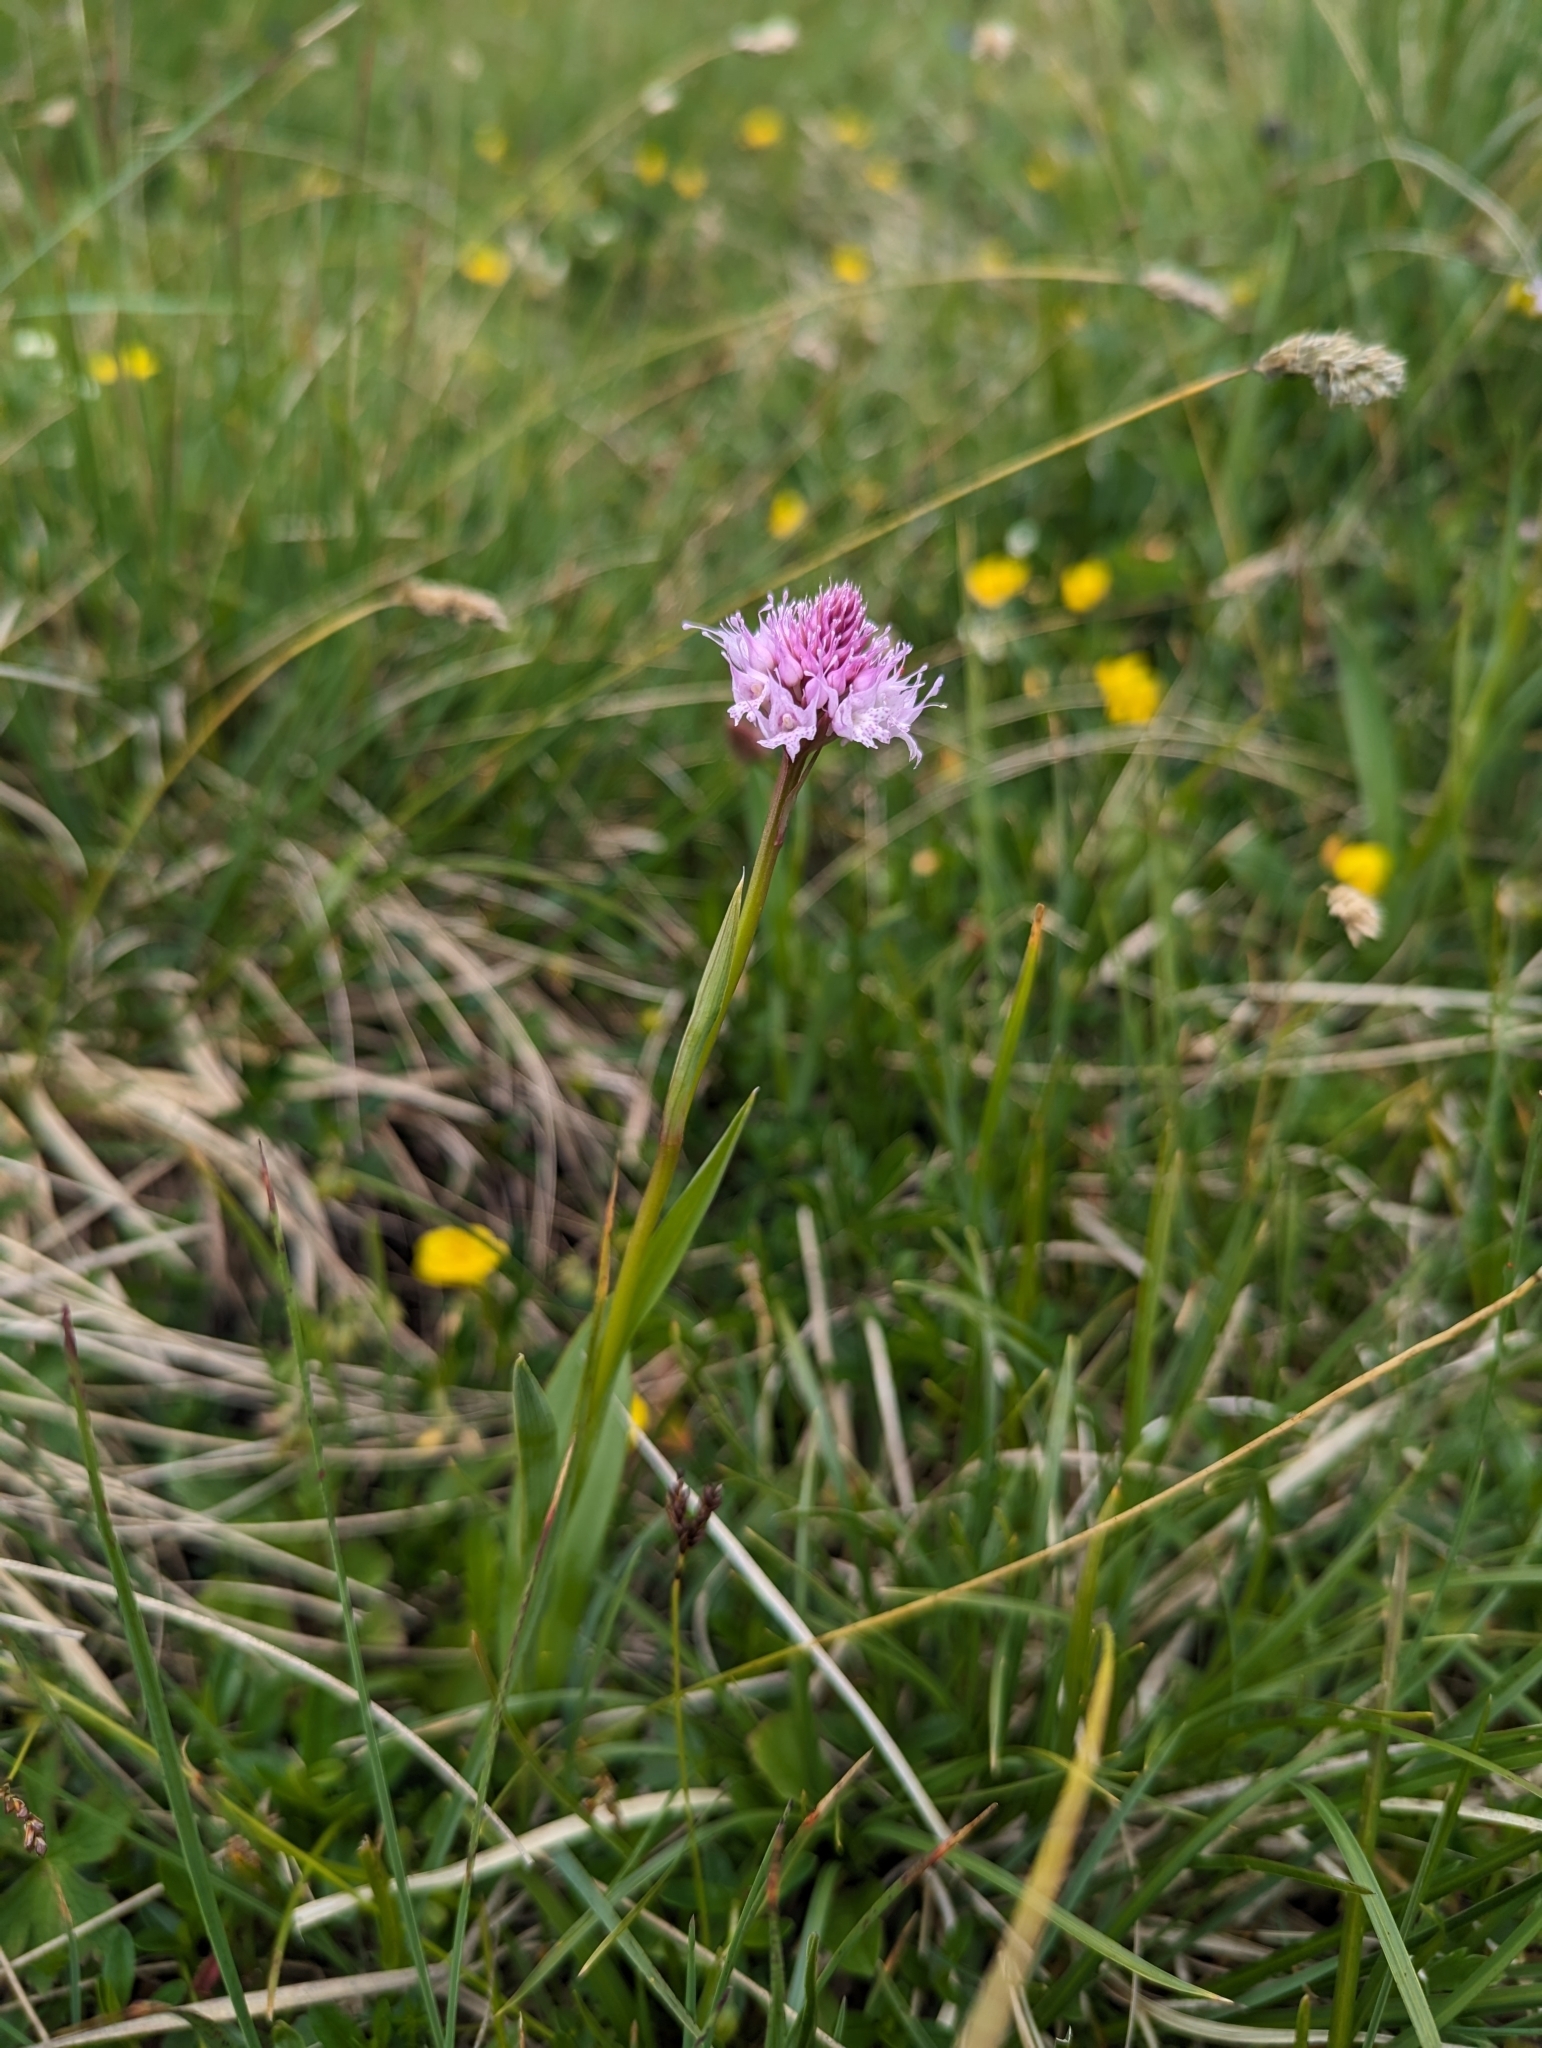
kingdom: Plantae
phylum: Tracheophyta
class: Liliopsida
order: Asparagales
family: Orchidaceae
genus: Traunsteinera
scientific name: Traunsteinera globosa
